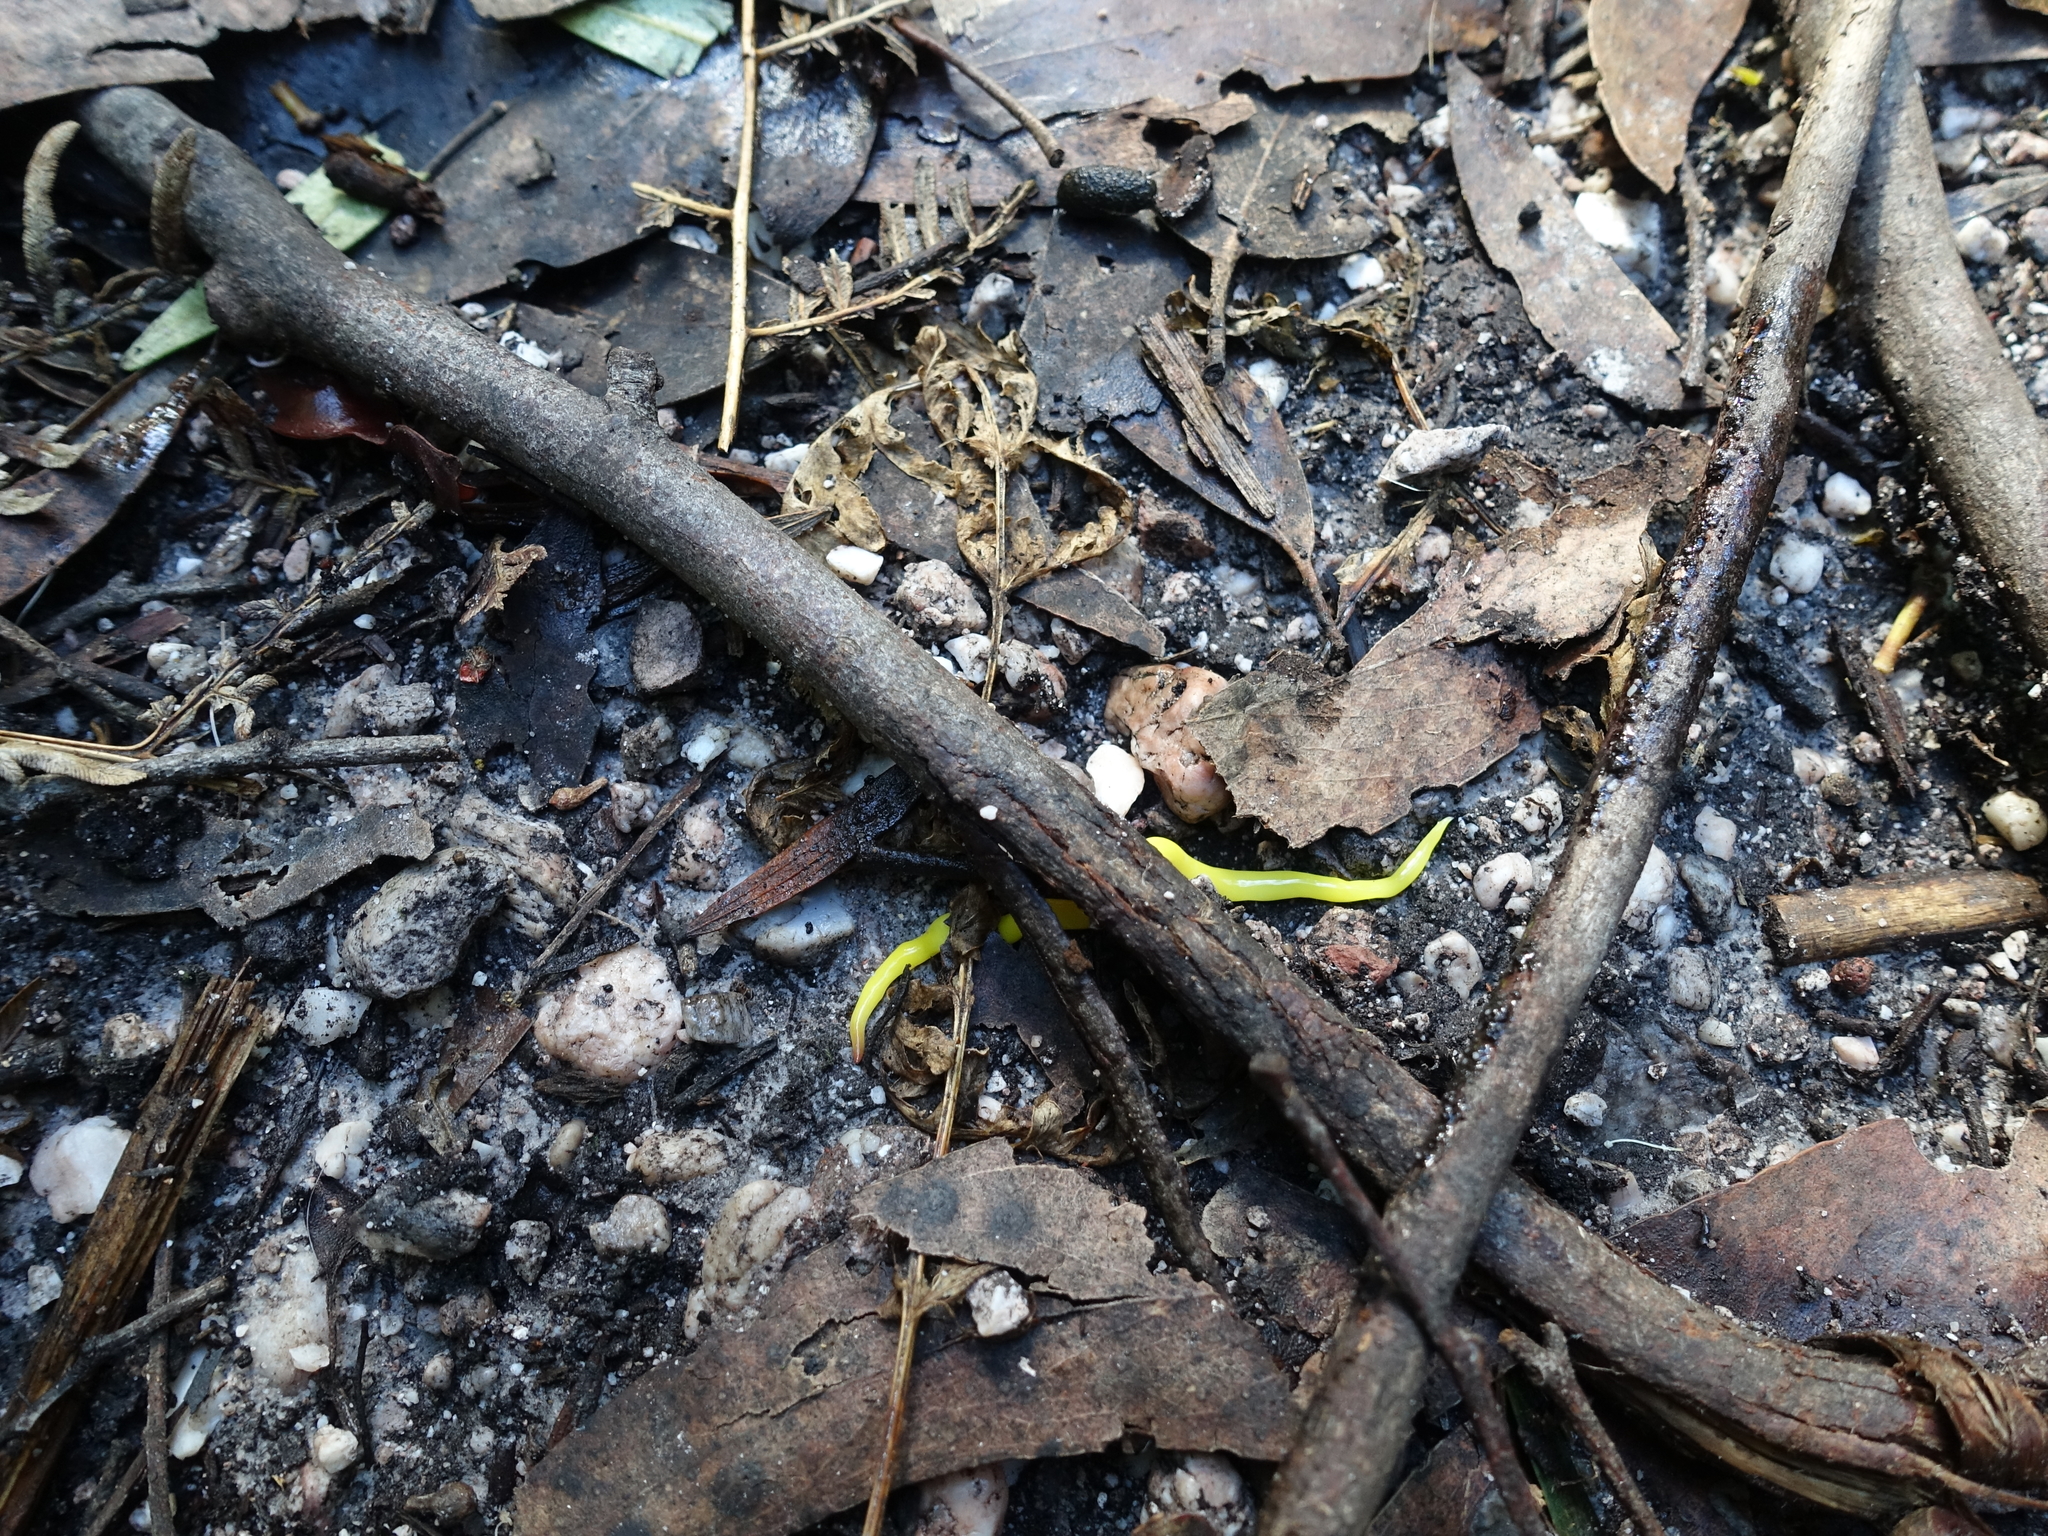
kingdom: Animalia
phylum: Platyhelminthes
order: Tricladida
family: Geoplanidae
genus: Fletchamia
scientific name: Fletchamia sugdeni
